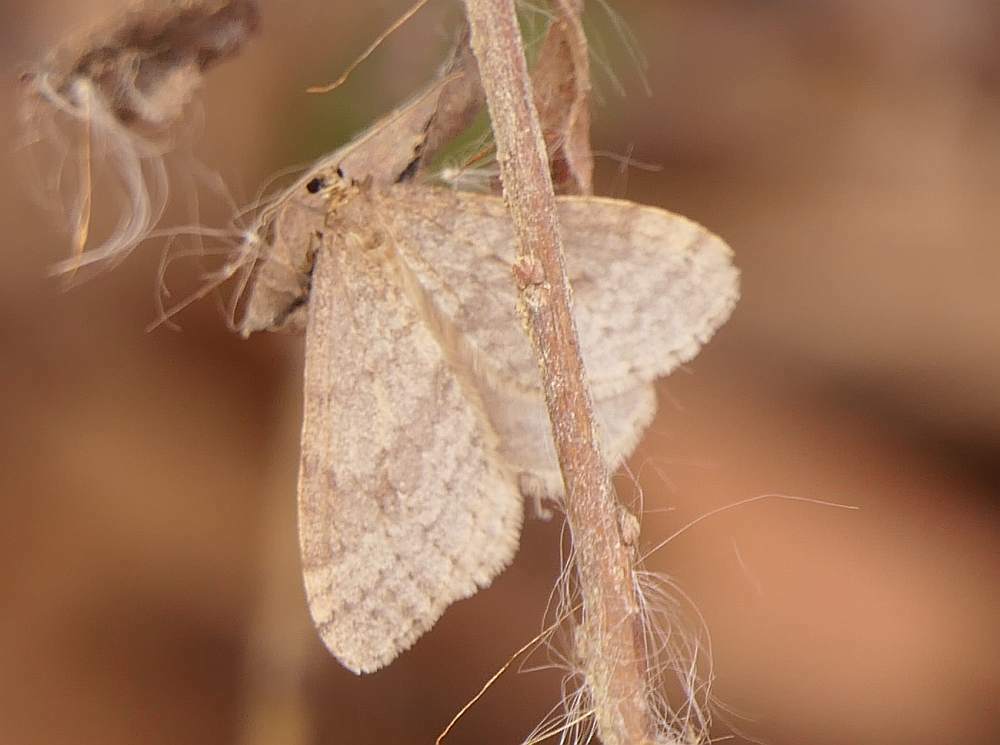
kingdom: Animalia
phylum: Arthropoda
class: Insecta
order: Lepidoptera
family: Geometridae
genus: Operophtera
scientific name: Operophtera bruceata
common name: Bruce spanworm
